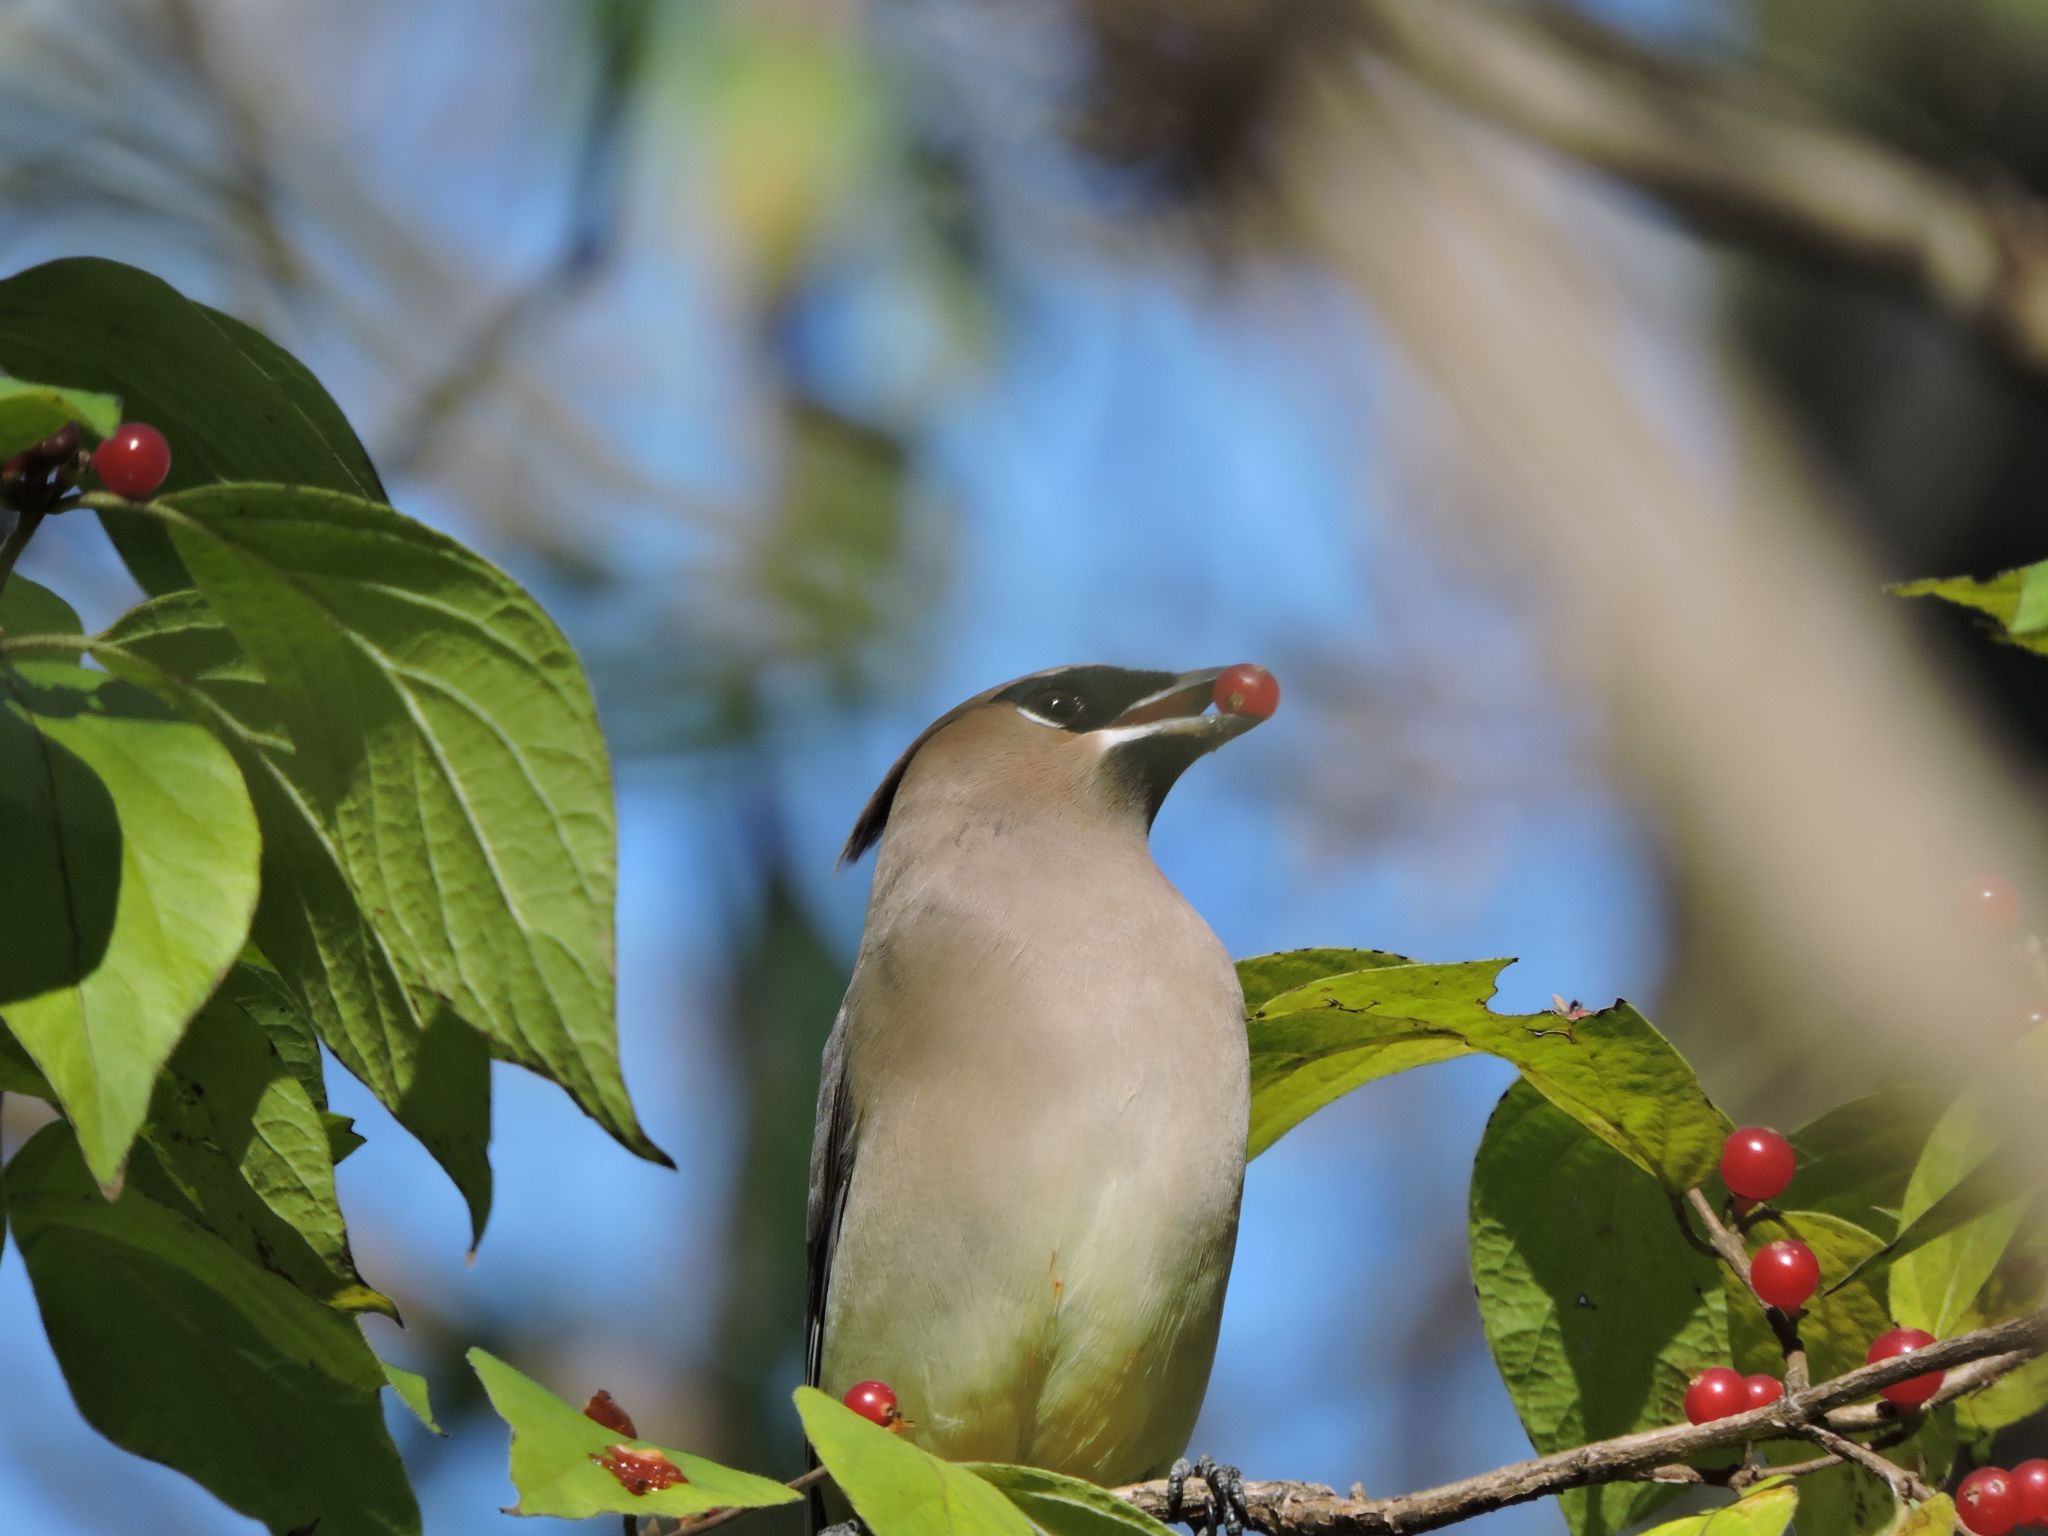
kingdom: Animalia
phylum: Chordata
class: Aves
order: Passeriformes
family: Bombycillidae
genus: Bombycilla
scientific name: Bombycilla cedrorum
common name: Cedar waxwing
